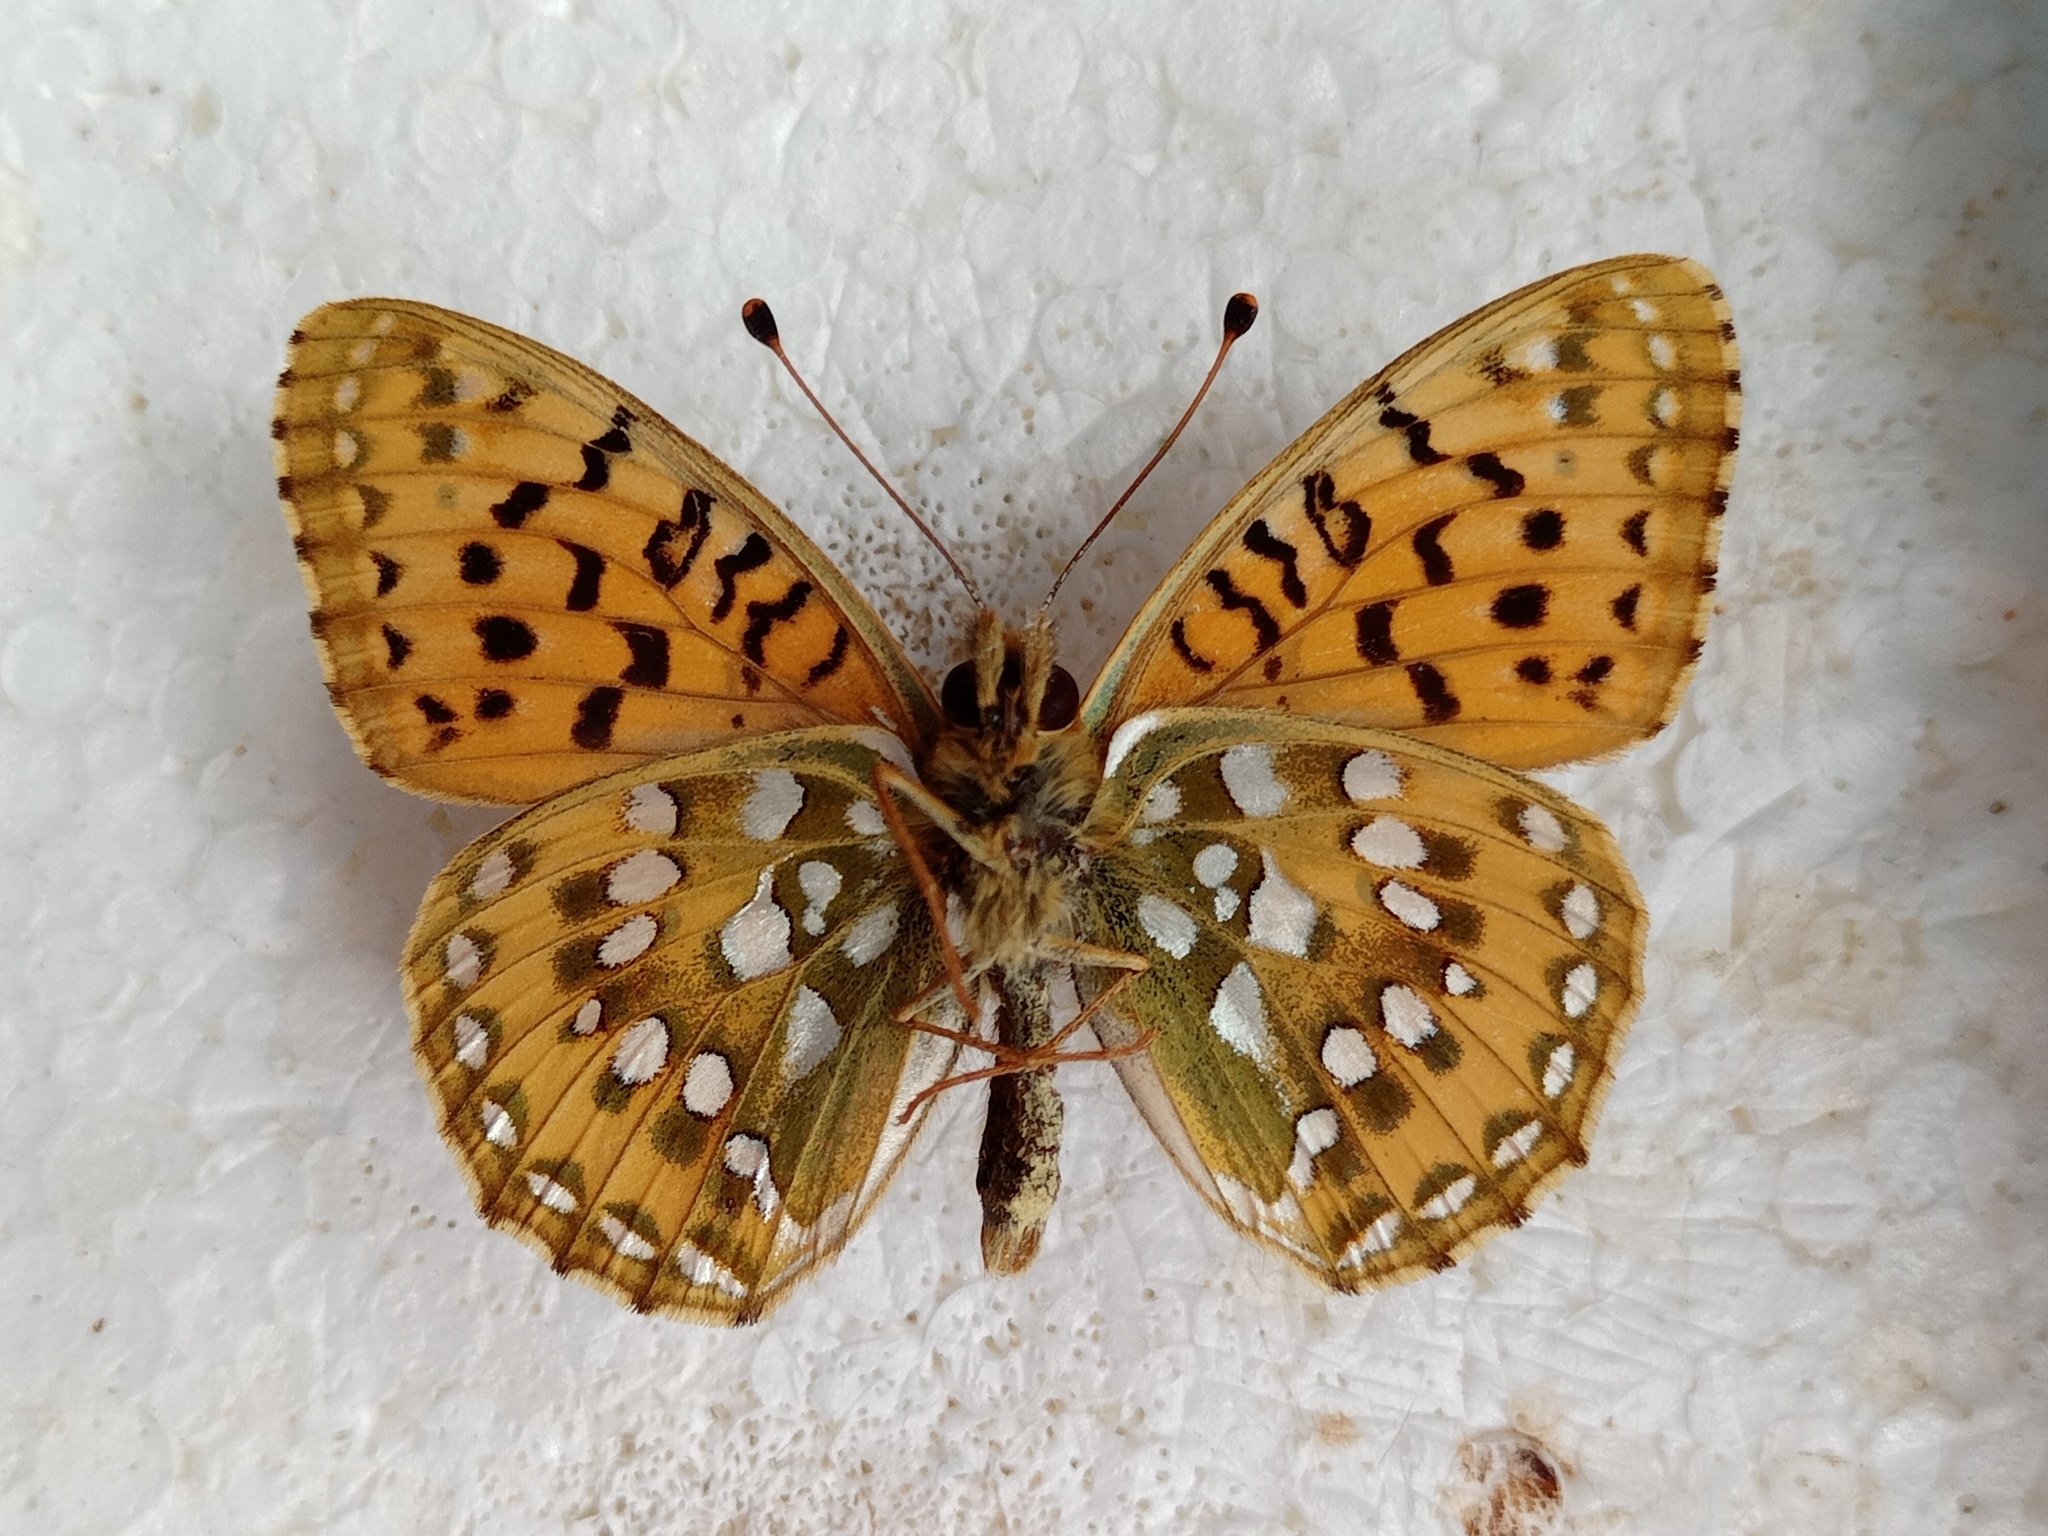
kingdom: Animalia
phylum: Arthropoda
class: Insecta
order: Lepidoptera
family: Nymphalidae
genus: Speyeria
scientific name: Speyeria aglaja
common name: Dark green fritillary
